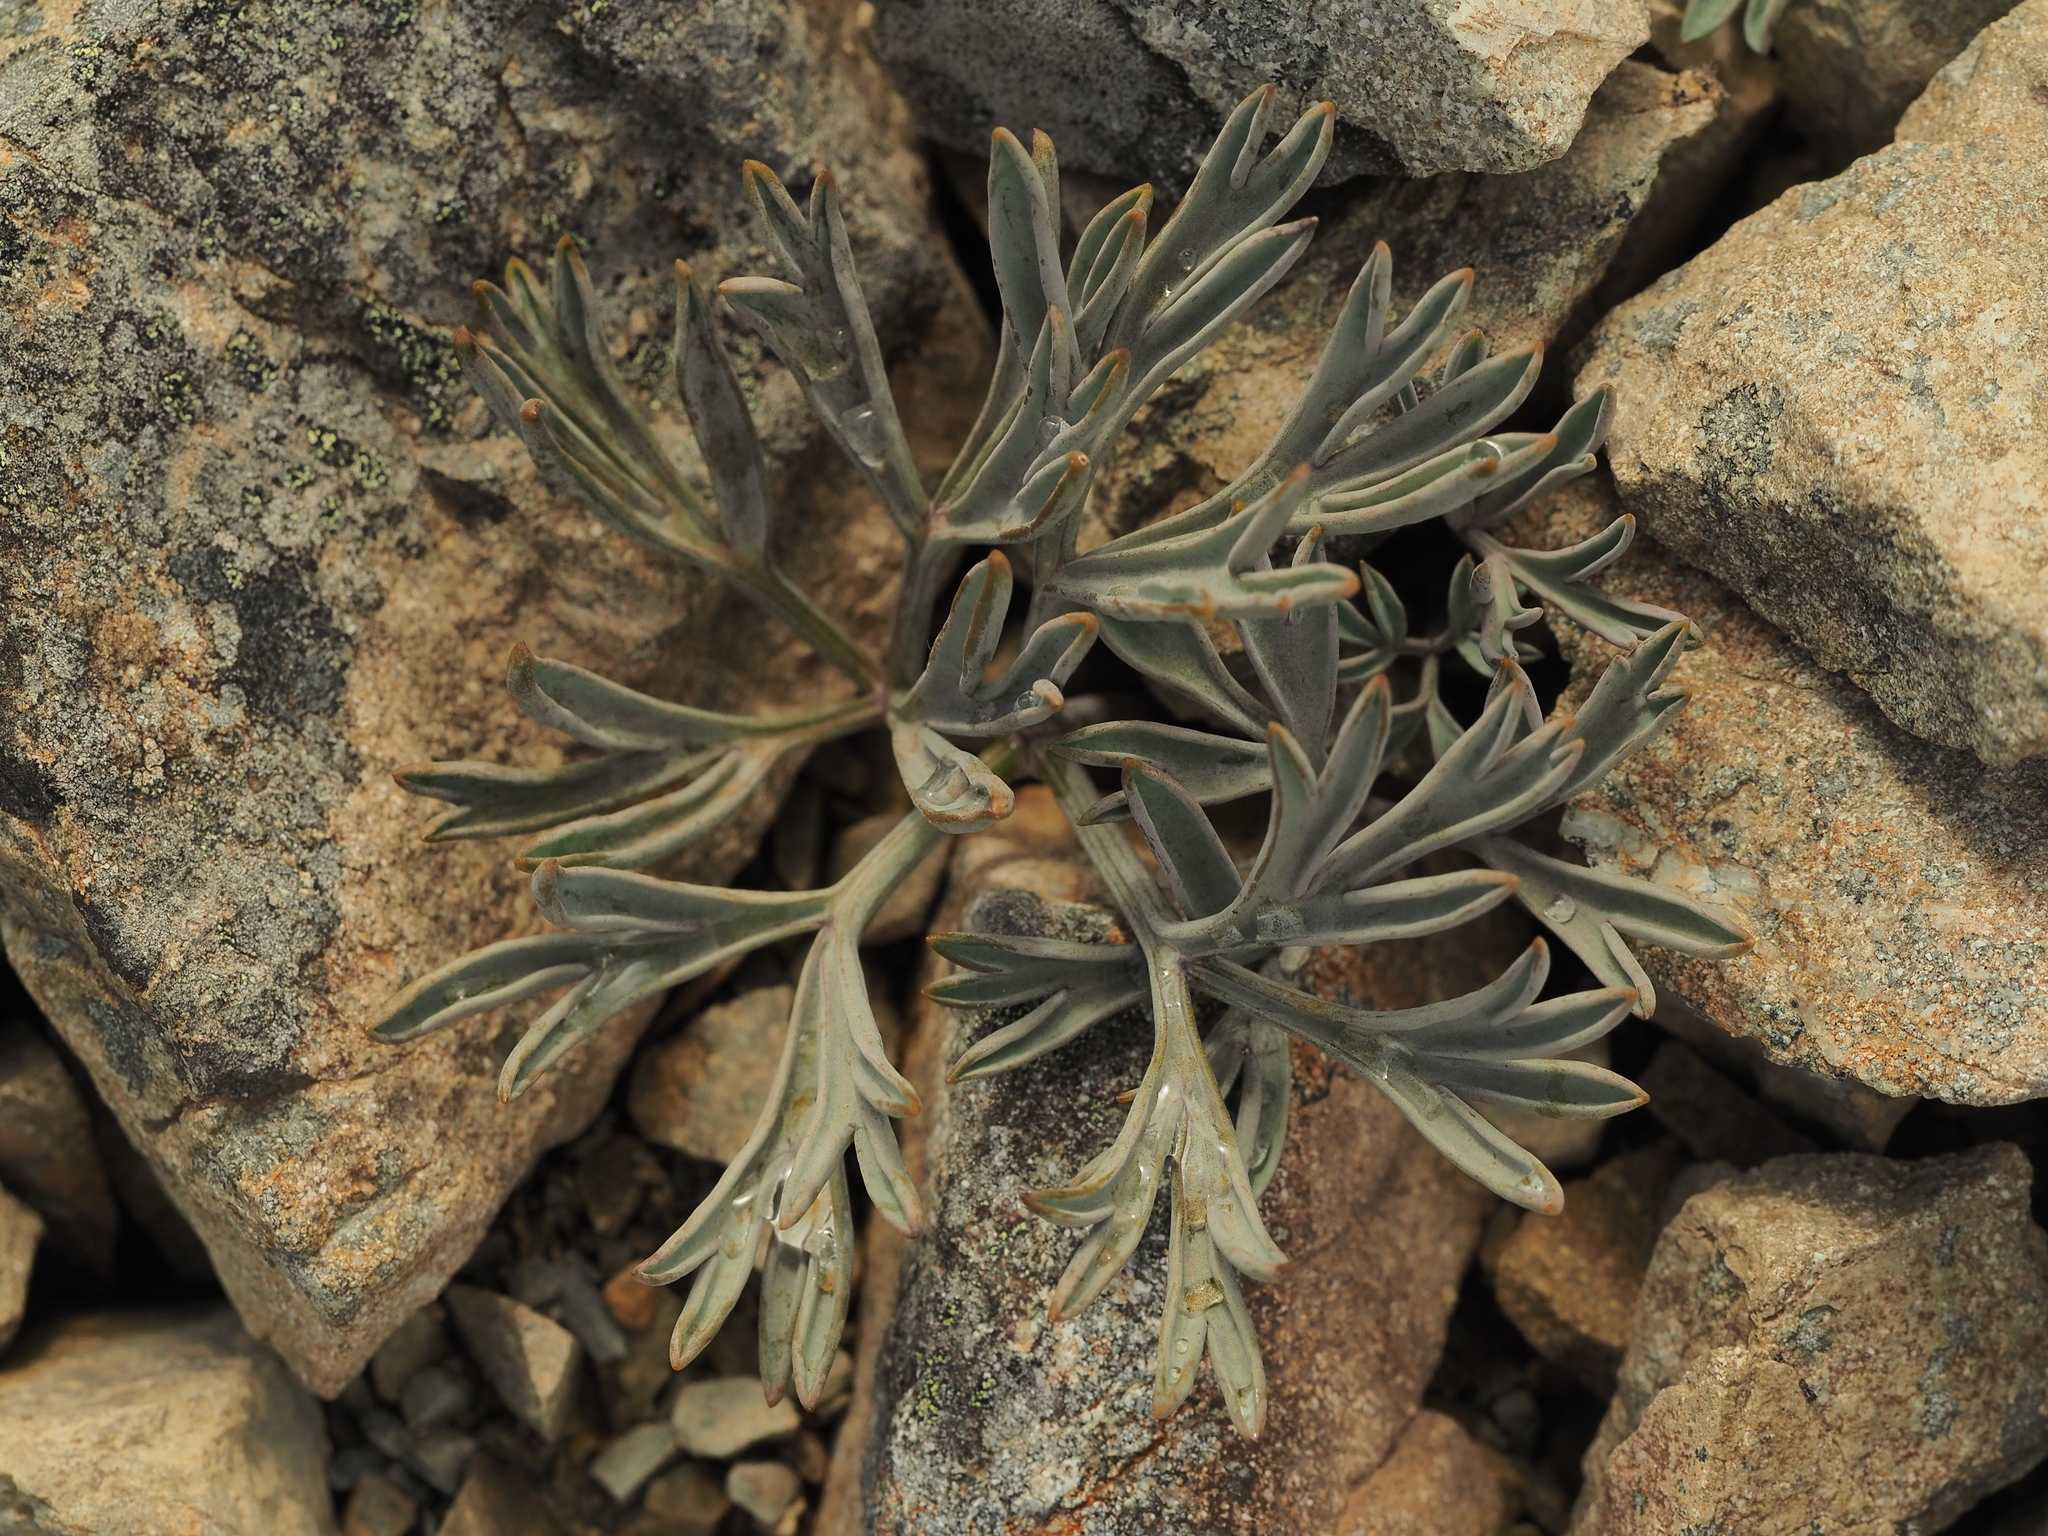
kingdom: Plantae
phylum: Tracheophyta
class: Magnoliopsida
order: Apiales
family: Apiaceae
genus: Lignocarpa
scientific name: Lignocarpa carnosula
